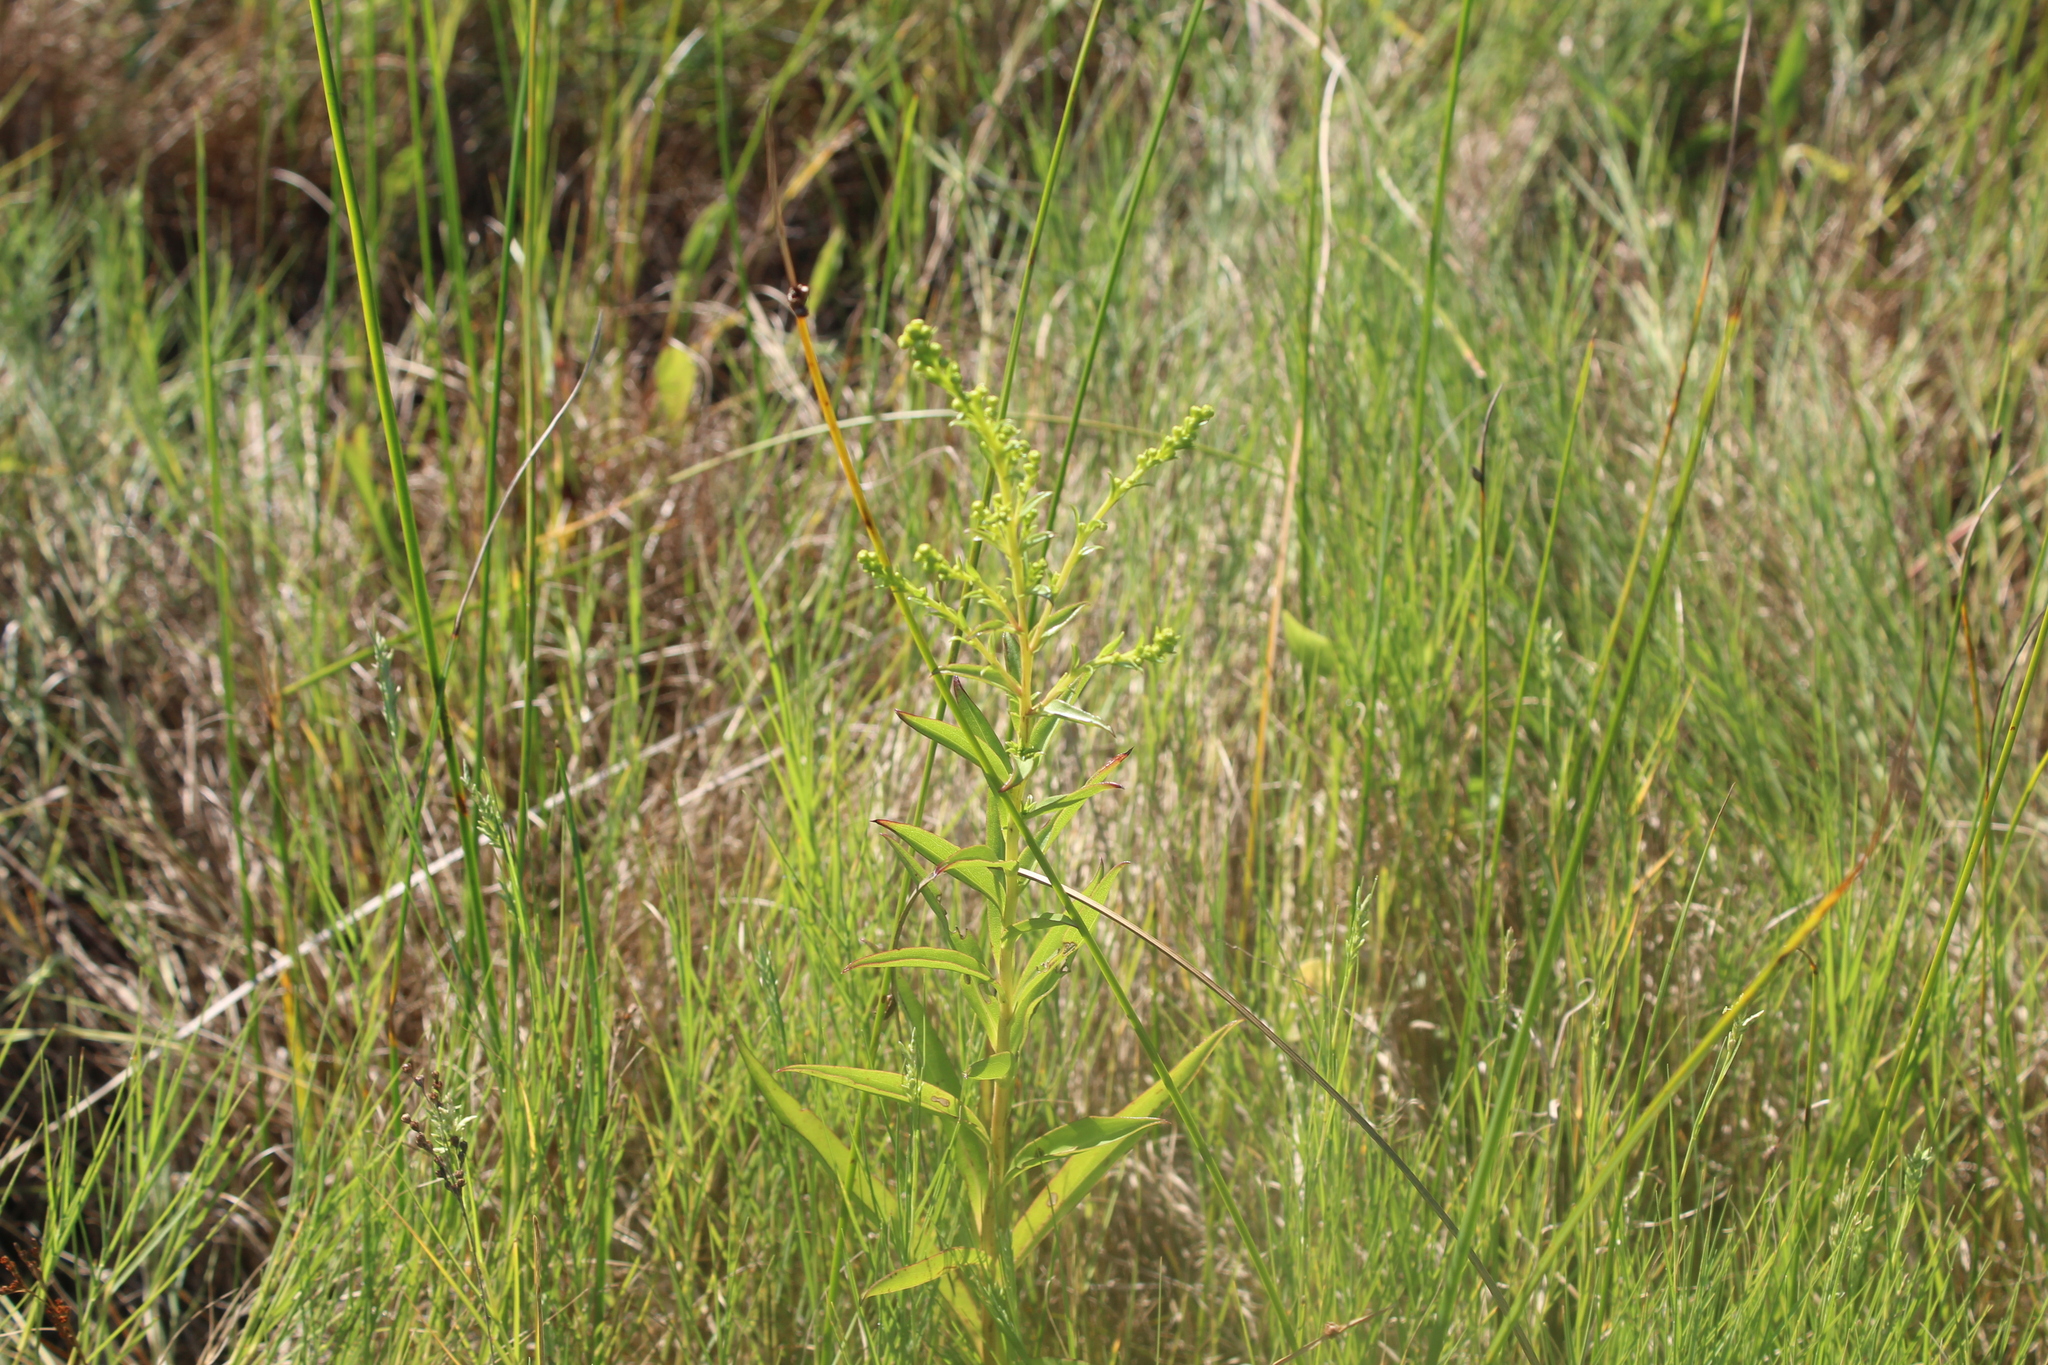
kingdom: Plantae
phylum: Tracheophyta
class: Magnoliopsida
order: Asterales
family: Asteraceae
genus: Solidago
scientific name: Solidago sempervirens
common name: Salt-marsh goldenrod
